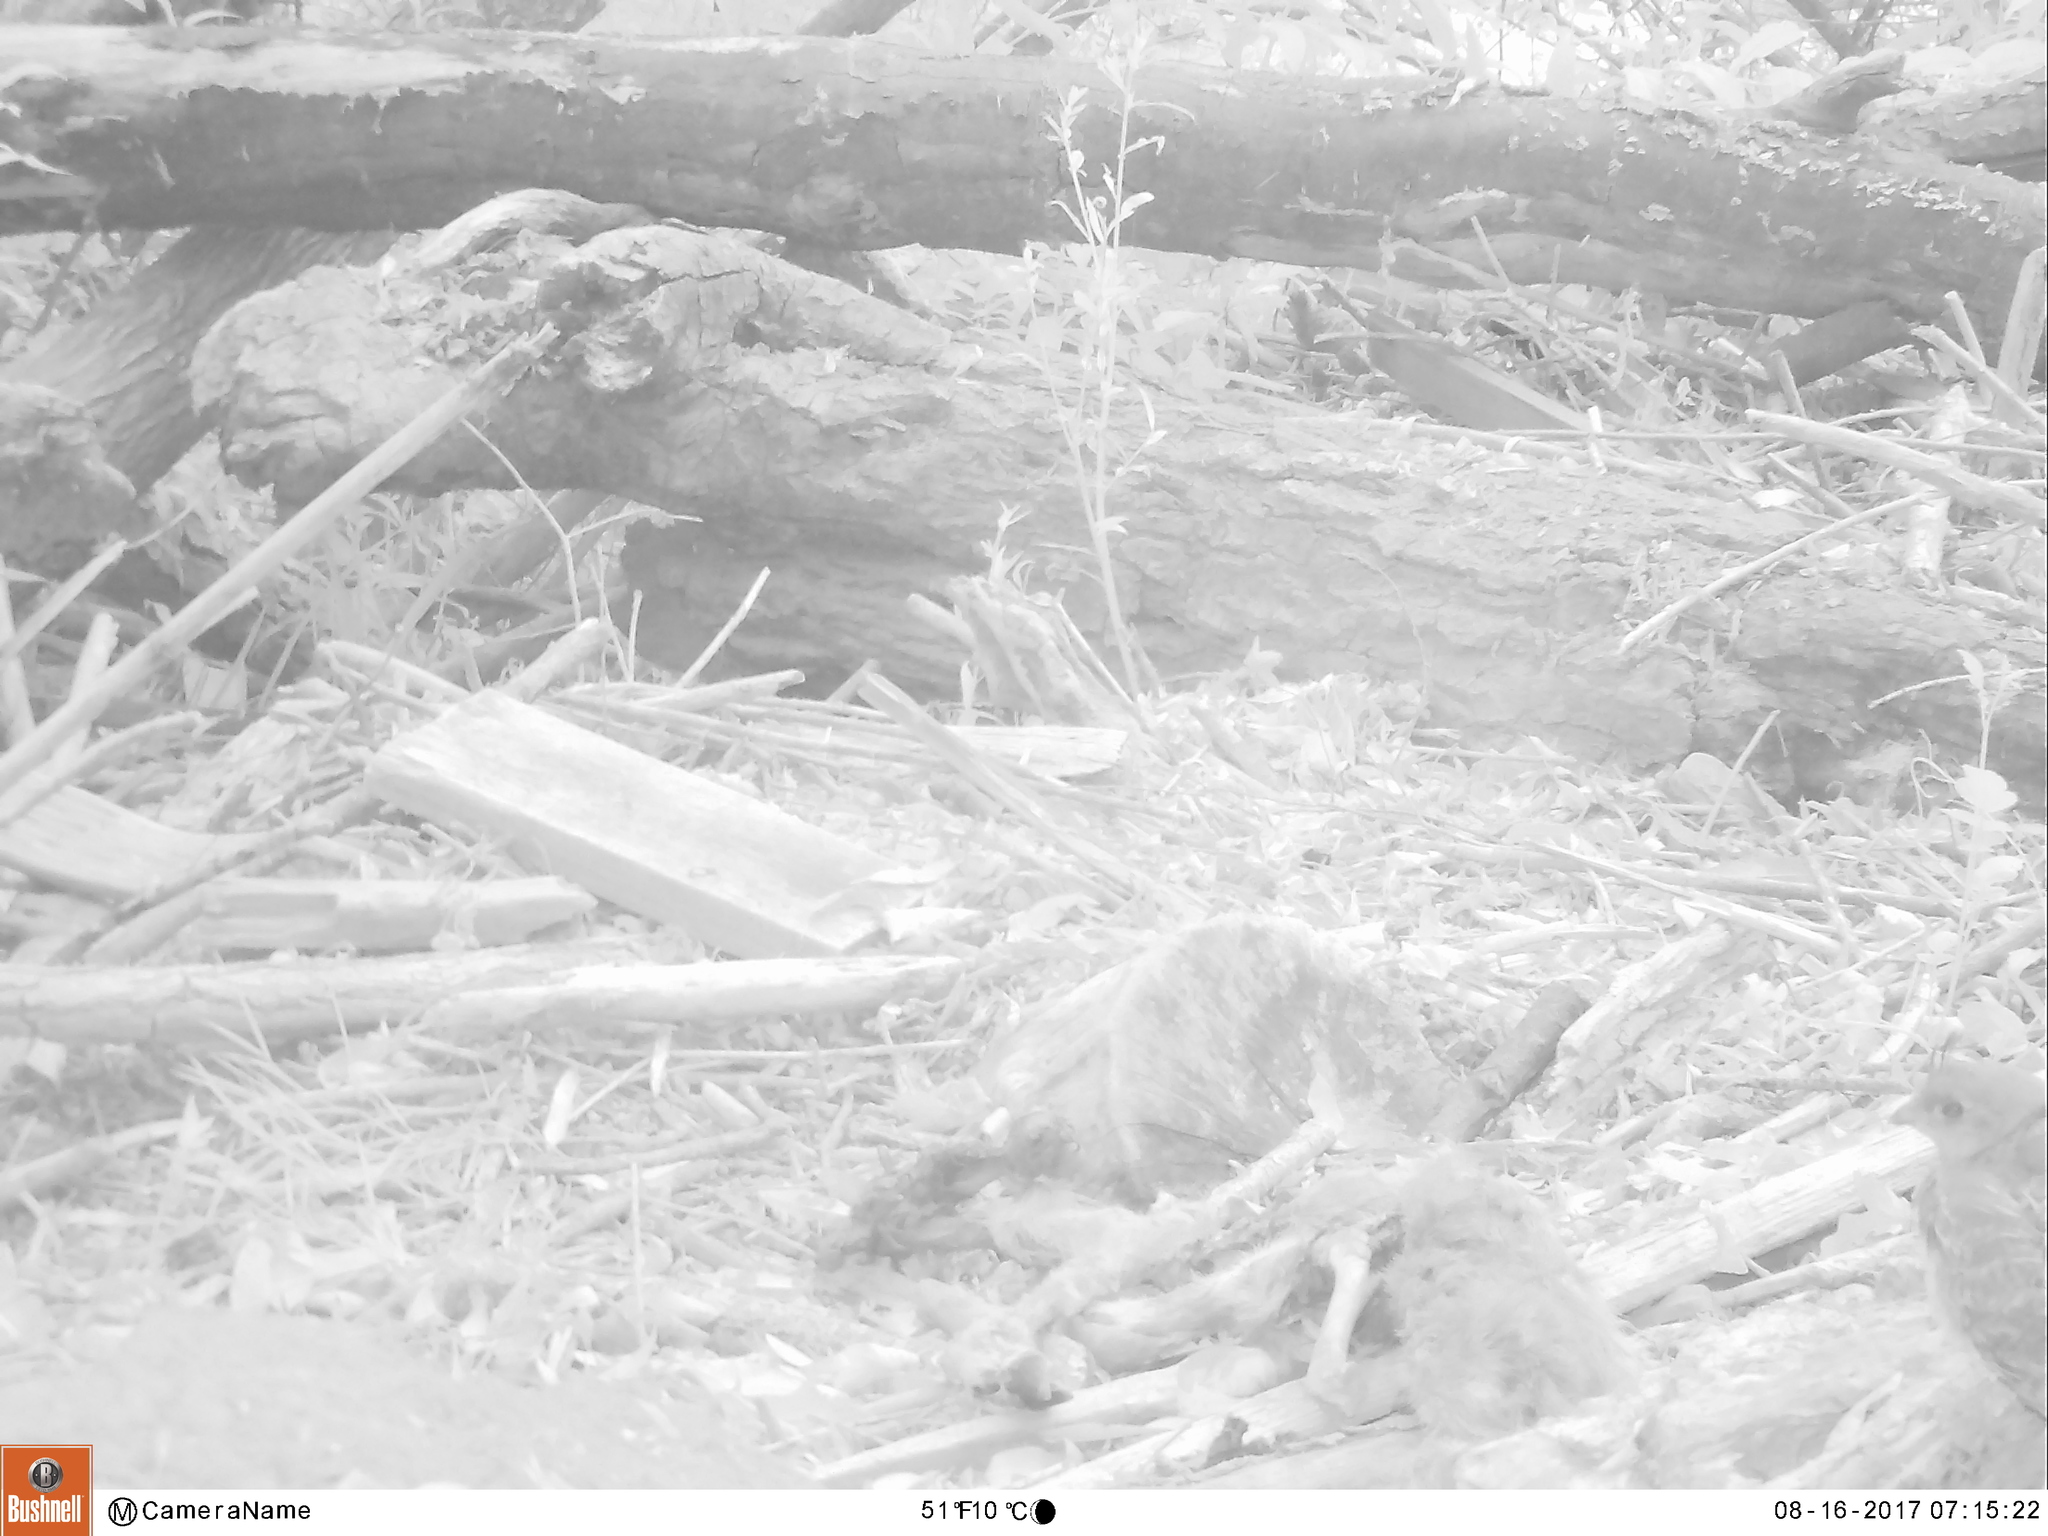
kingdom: Animalia
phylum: Chordata
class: Aves
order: Galliformes
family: Odontophoridae
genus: Callipepla
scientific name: Callipepla californica
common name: California quail
